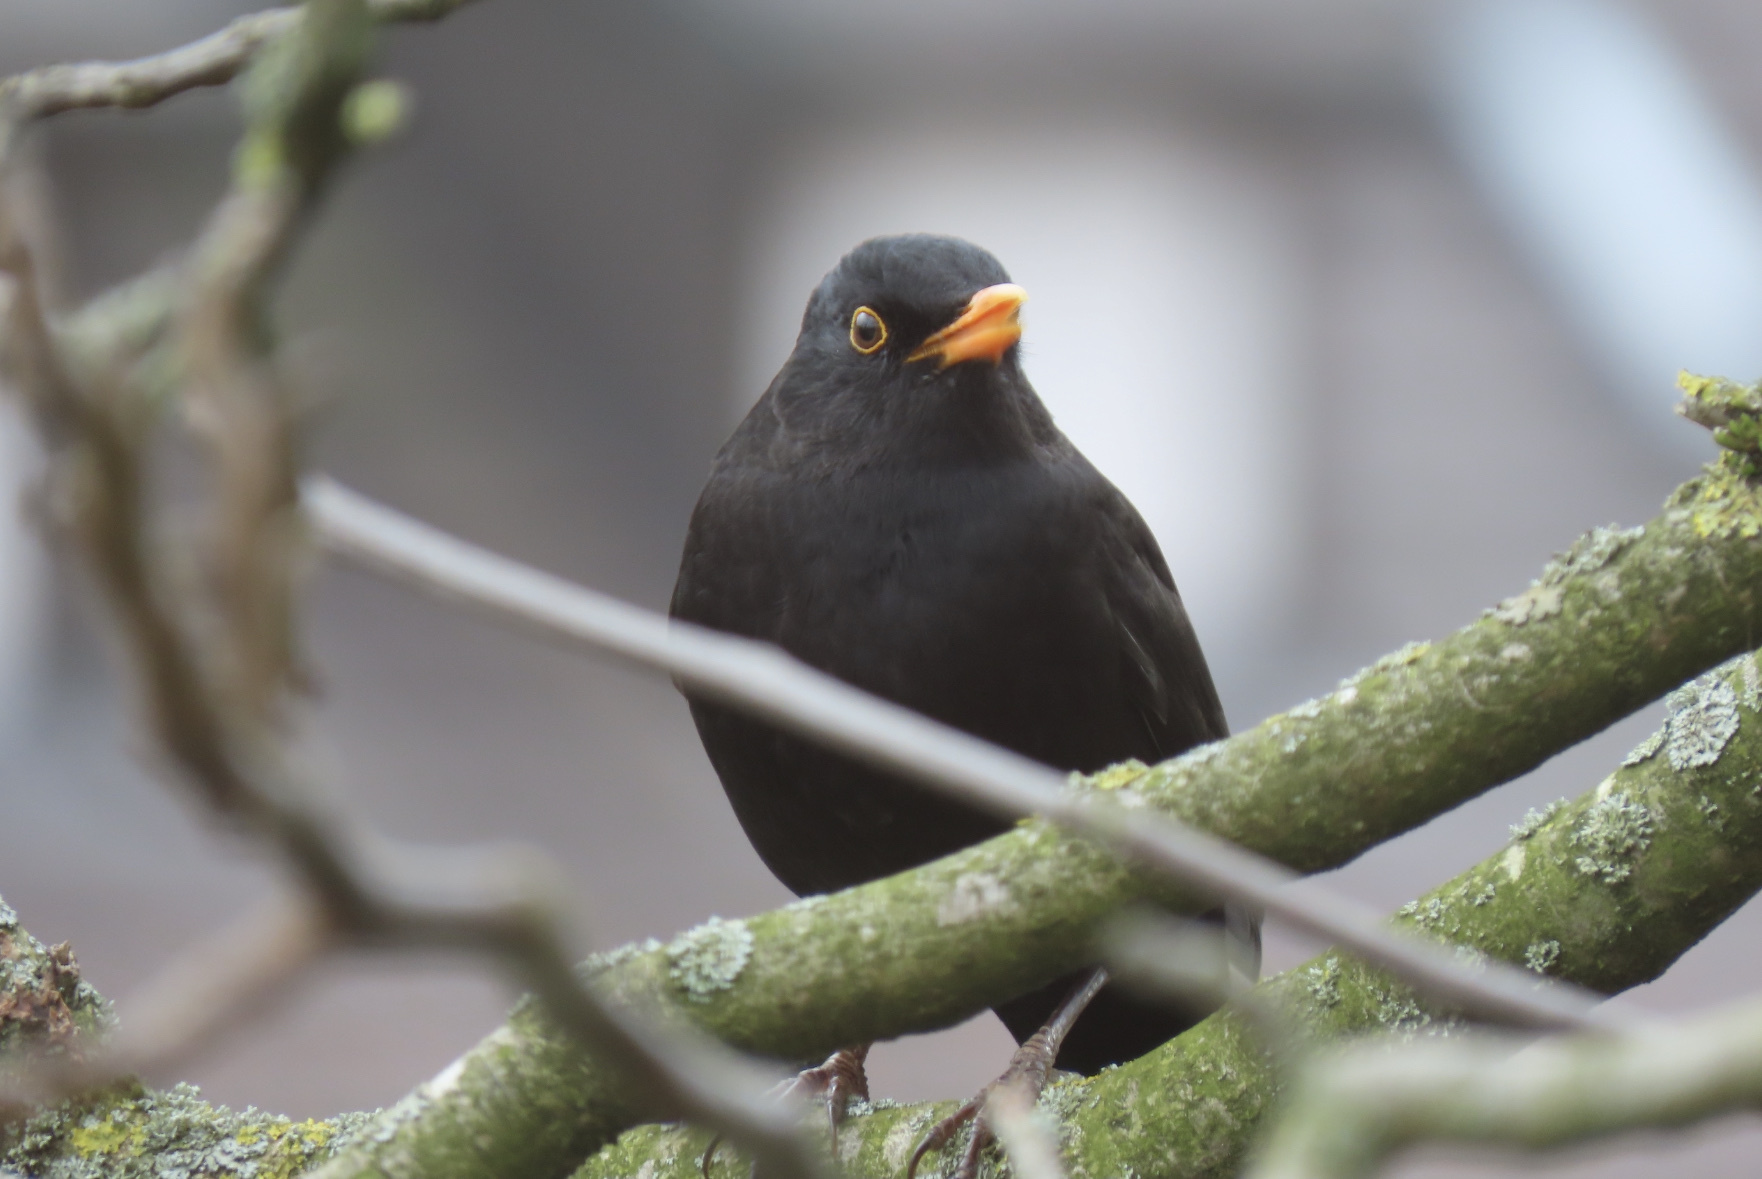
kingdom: Animalia
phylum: Chordata
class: Aves
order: Passeriformes
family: Turdidae
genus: Turdus
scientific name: Turdus merula
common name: Common blackbird
